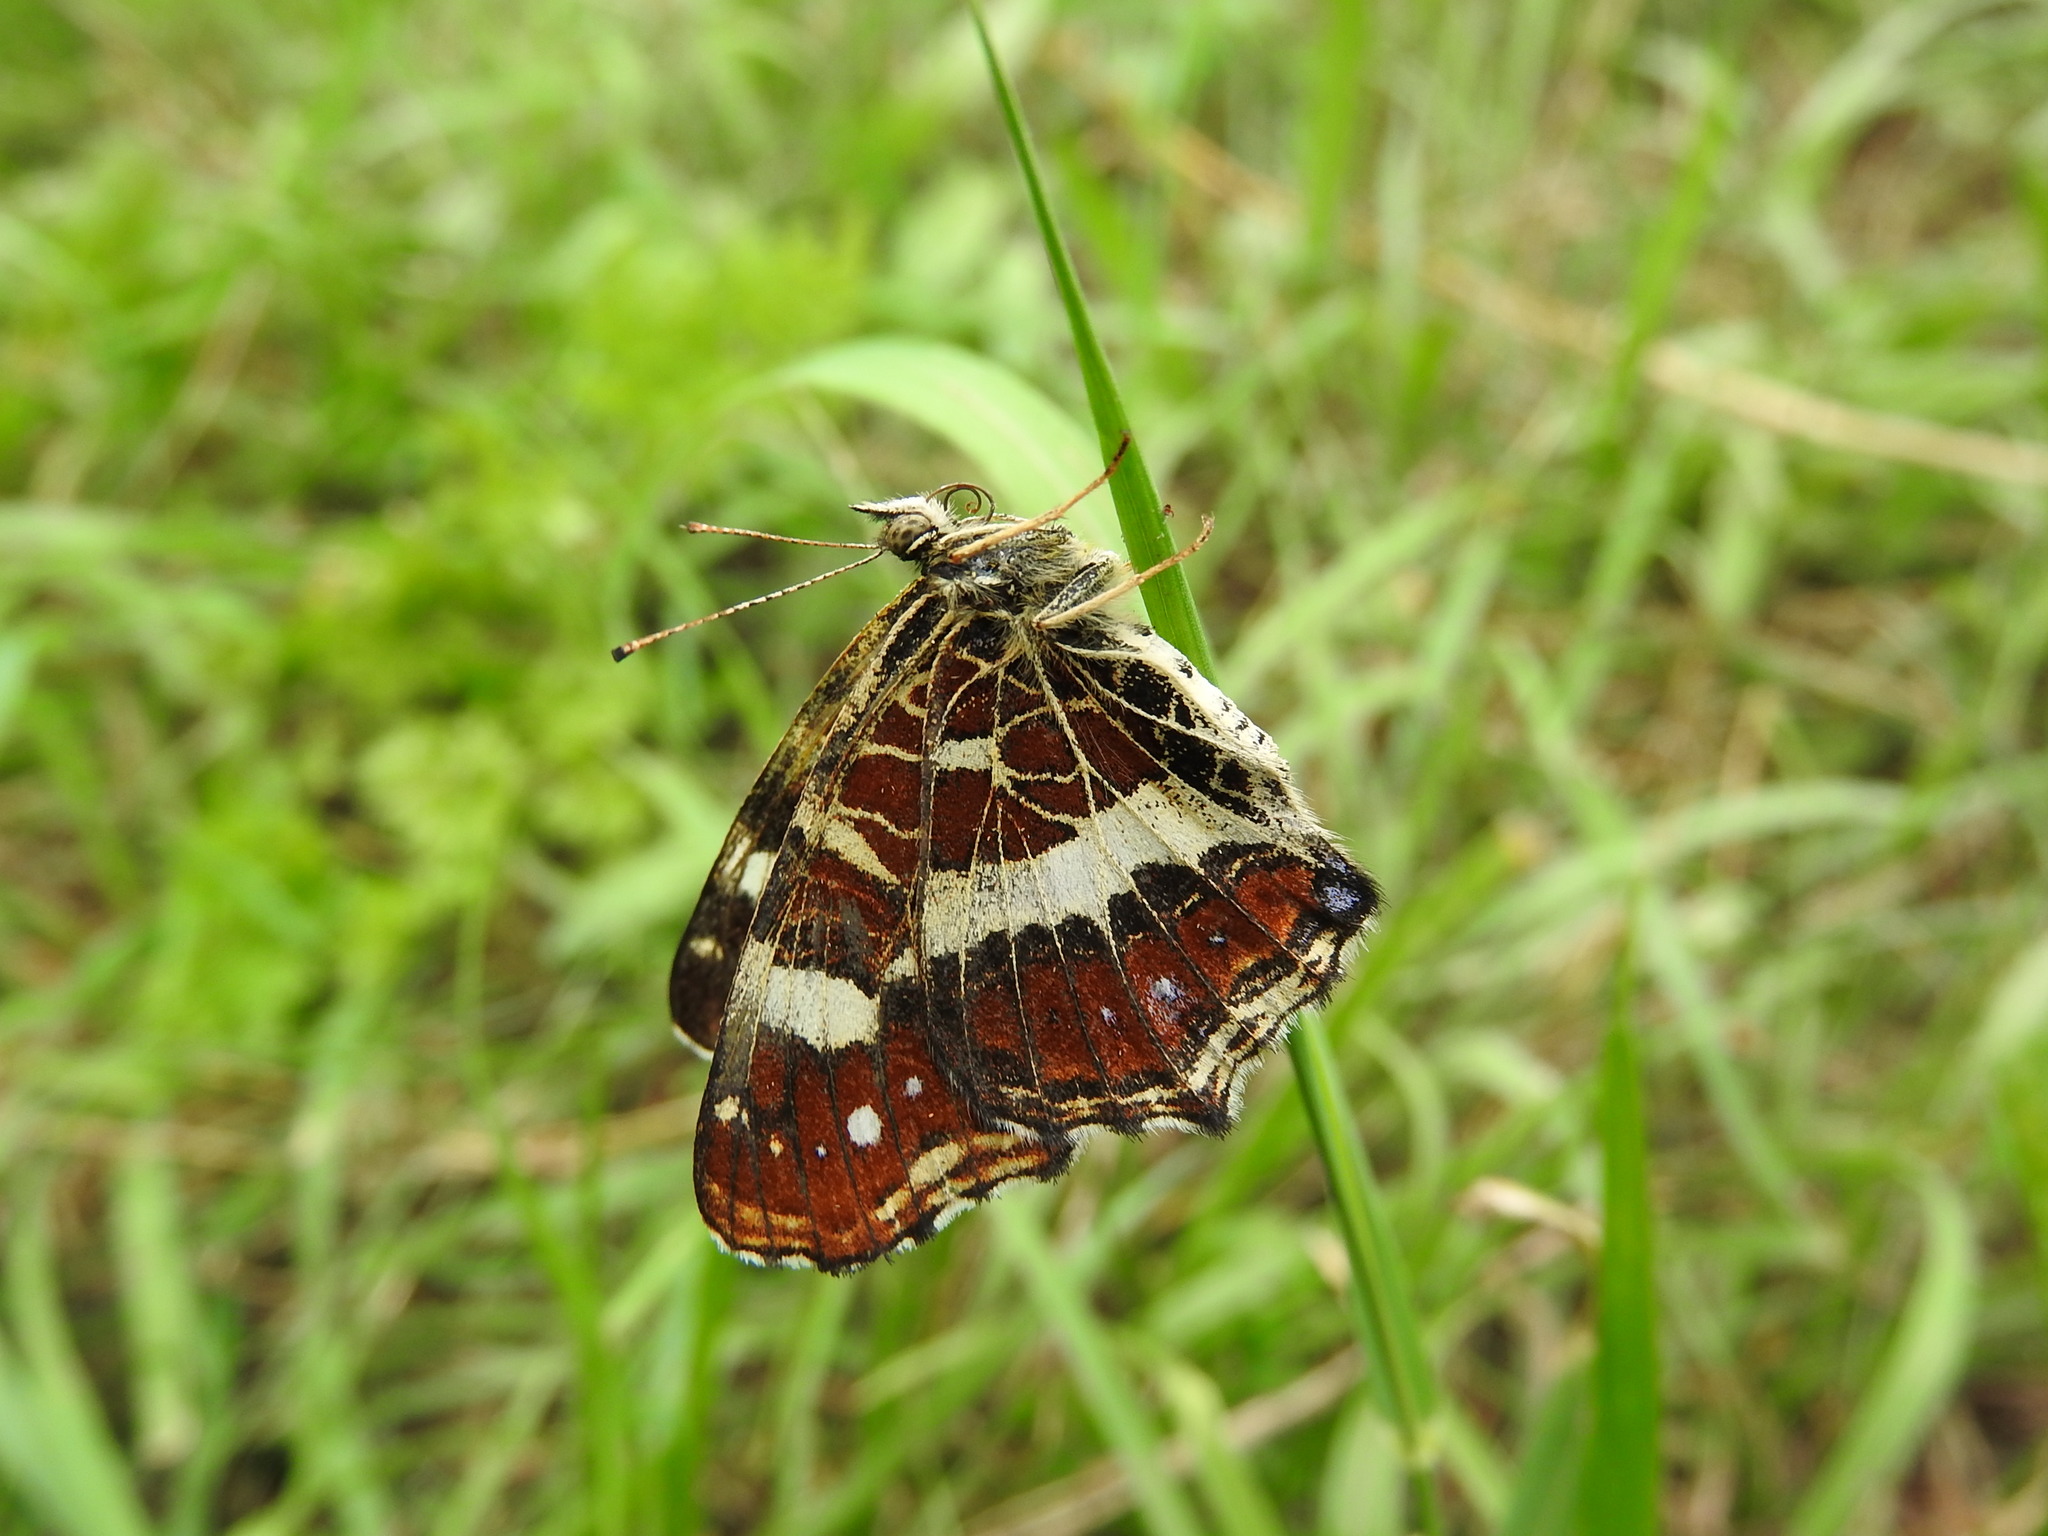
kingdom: Animalia
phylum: Arthropoda
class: Insecta
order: Lepidoptera
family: Nymphalidae
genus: Araschnia
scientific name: Araschnia levana
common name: Map butterfly
